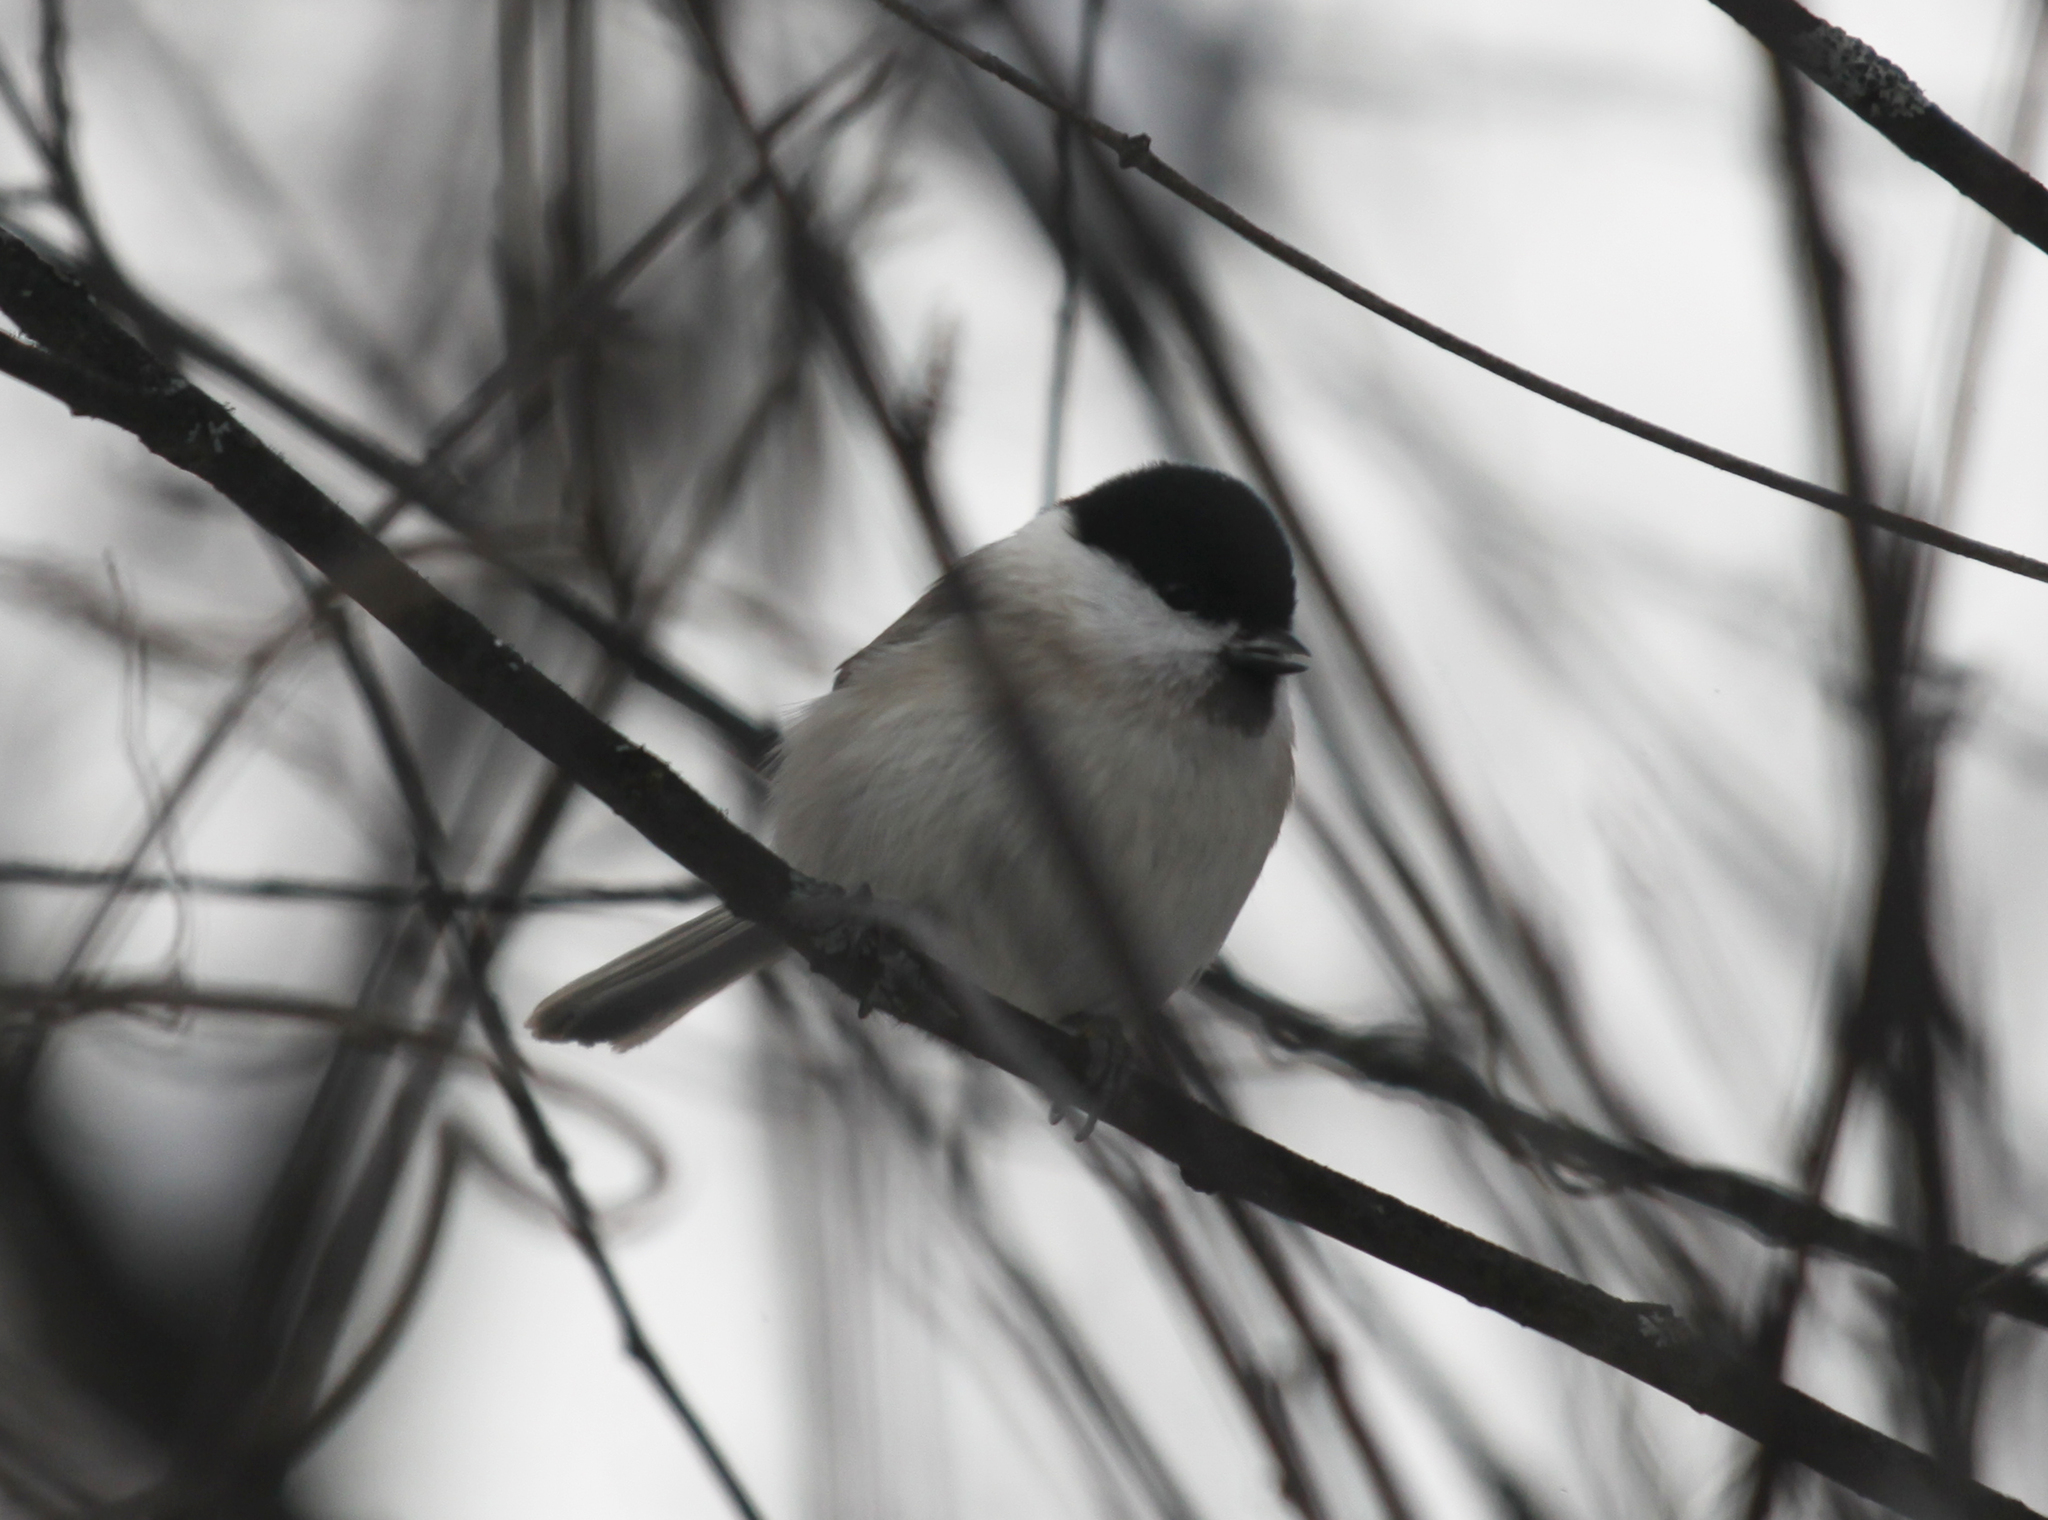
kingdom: Animalia
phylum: Chordata
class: Aves
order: Passeriformes
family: Paridae
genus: Poecile
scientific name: Poecile montanus
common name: Willow tit
